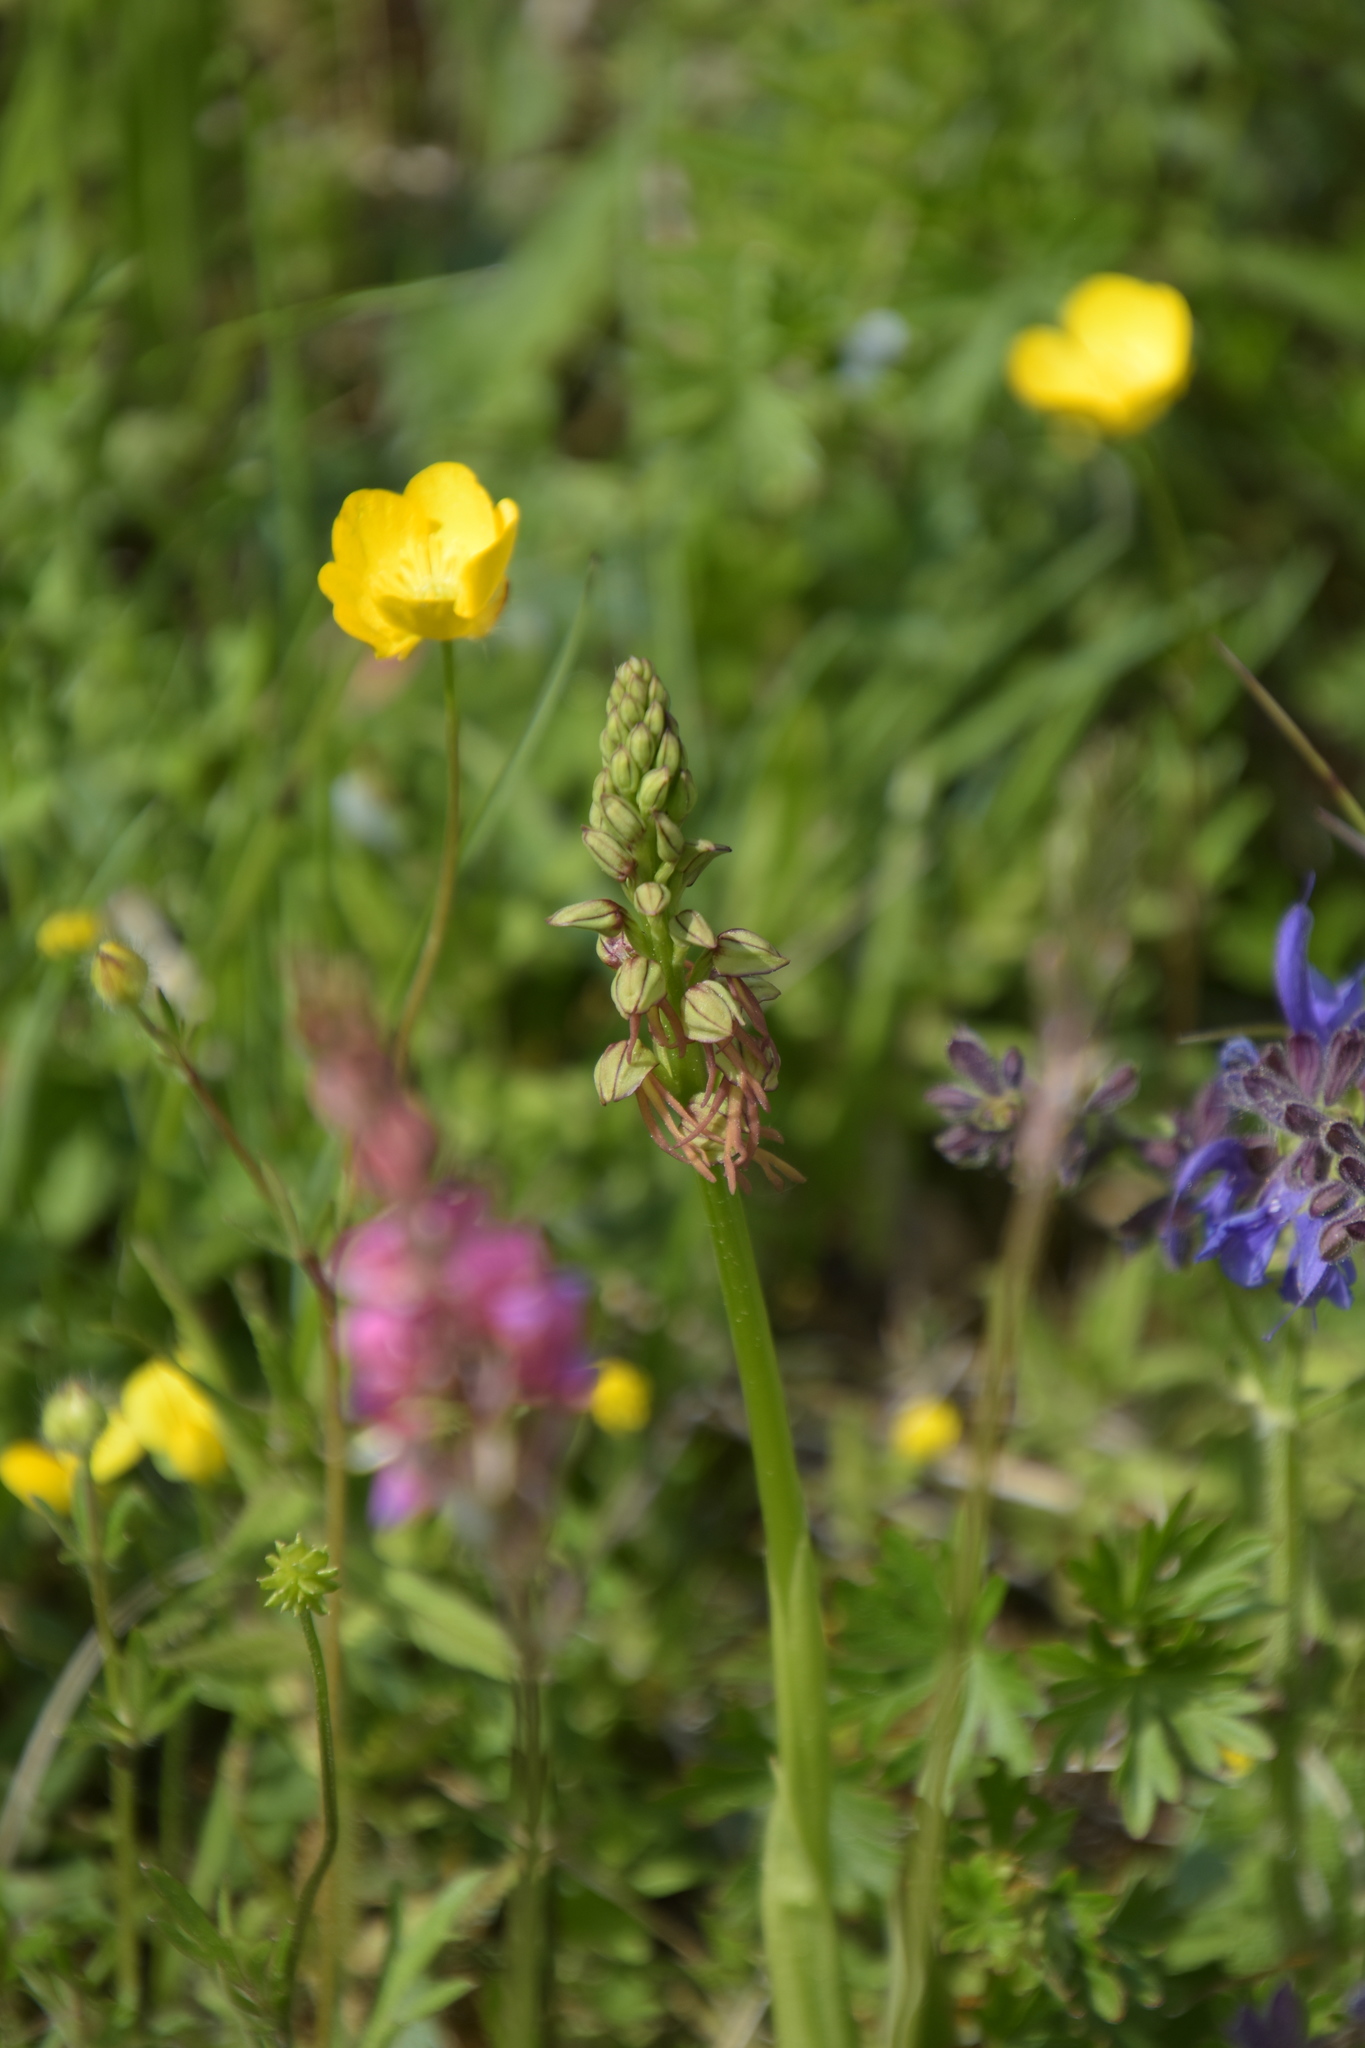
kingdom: Plantae
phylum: Tracheophyta
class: Liliopsida
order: Asparagales
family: Orchidaceae
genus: Orchis
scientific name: Orchis anthropophora
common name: Man orchid
